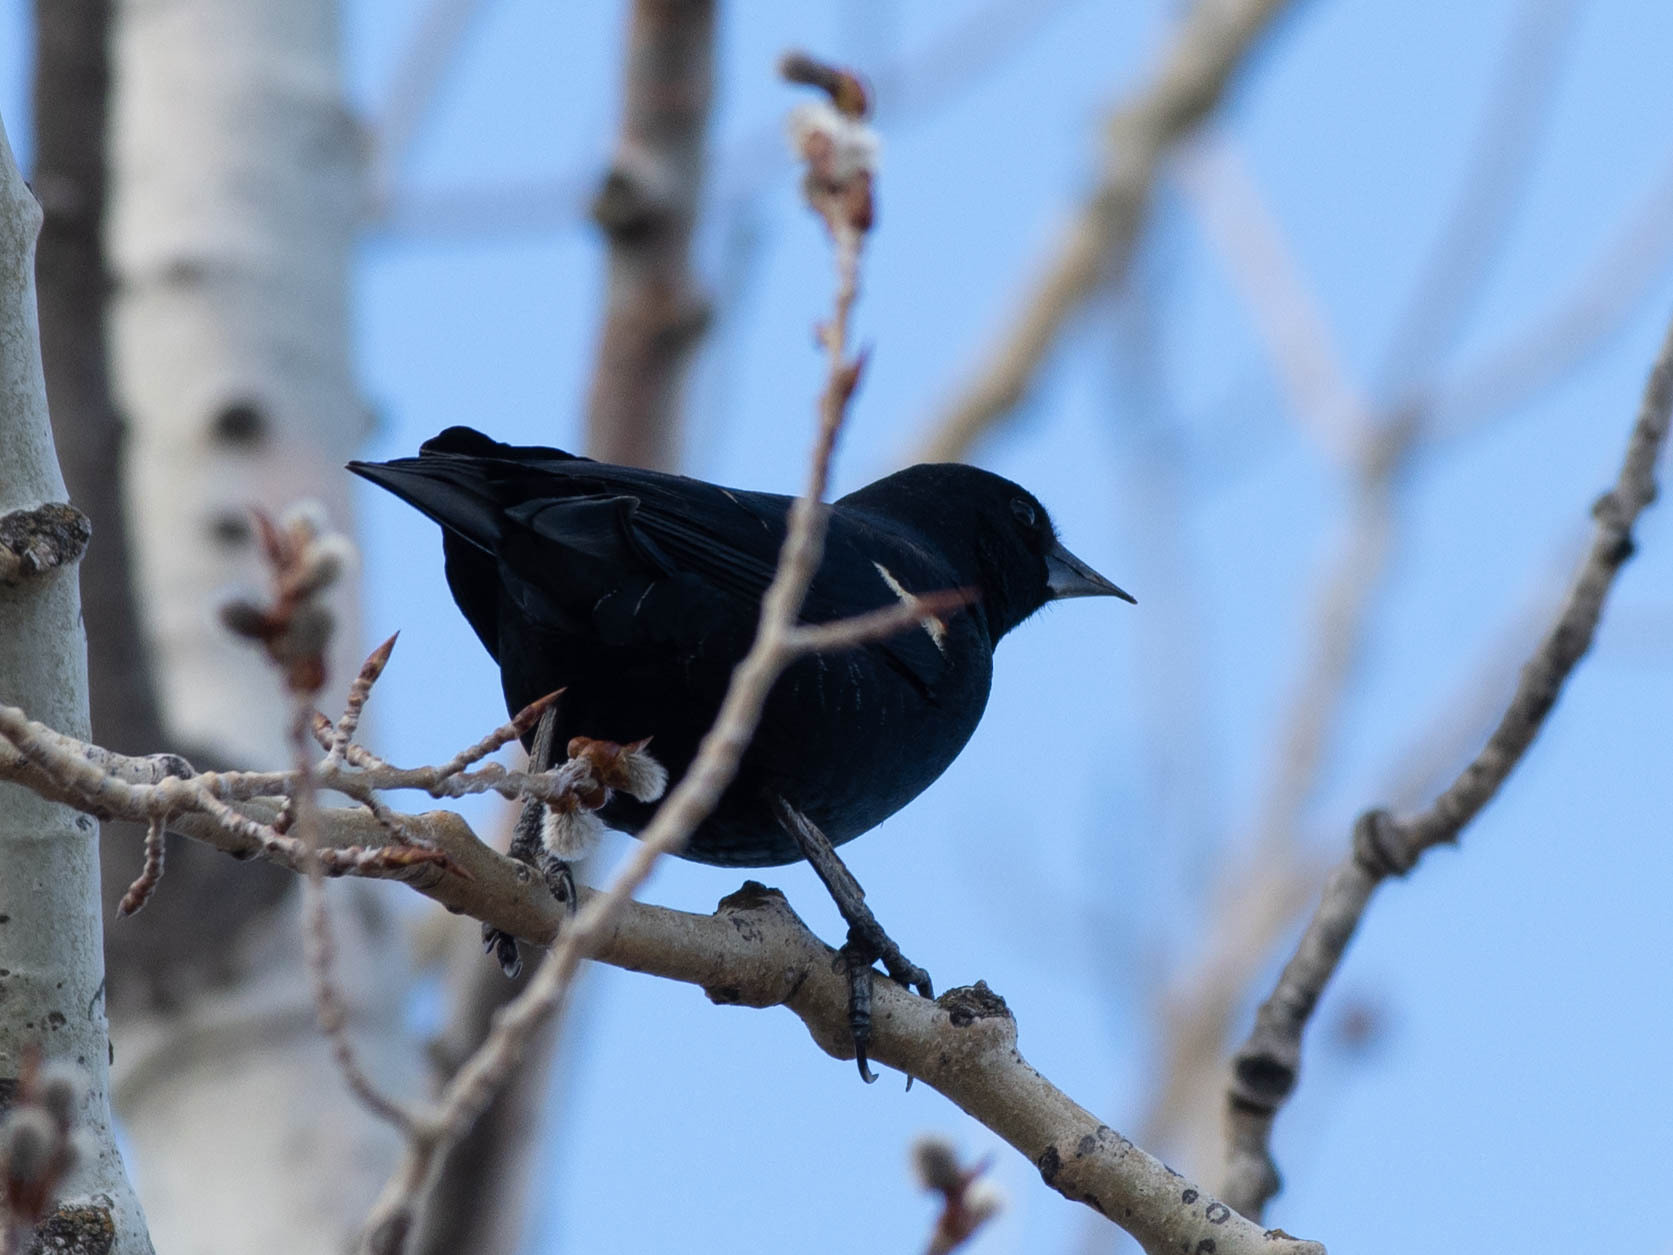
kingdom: Animalia
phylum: Chordata
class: Aves
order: Passeriformes
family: Icteridae
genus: Agelaius
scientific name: Agelaius phoeniceus
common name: Red-winged blackbird
